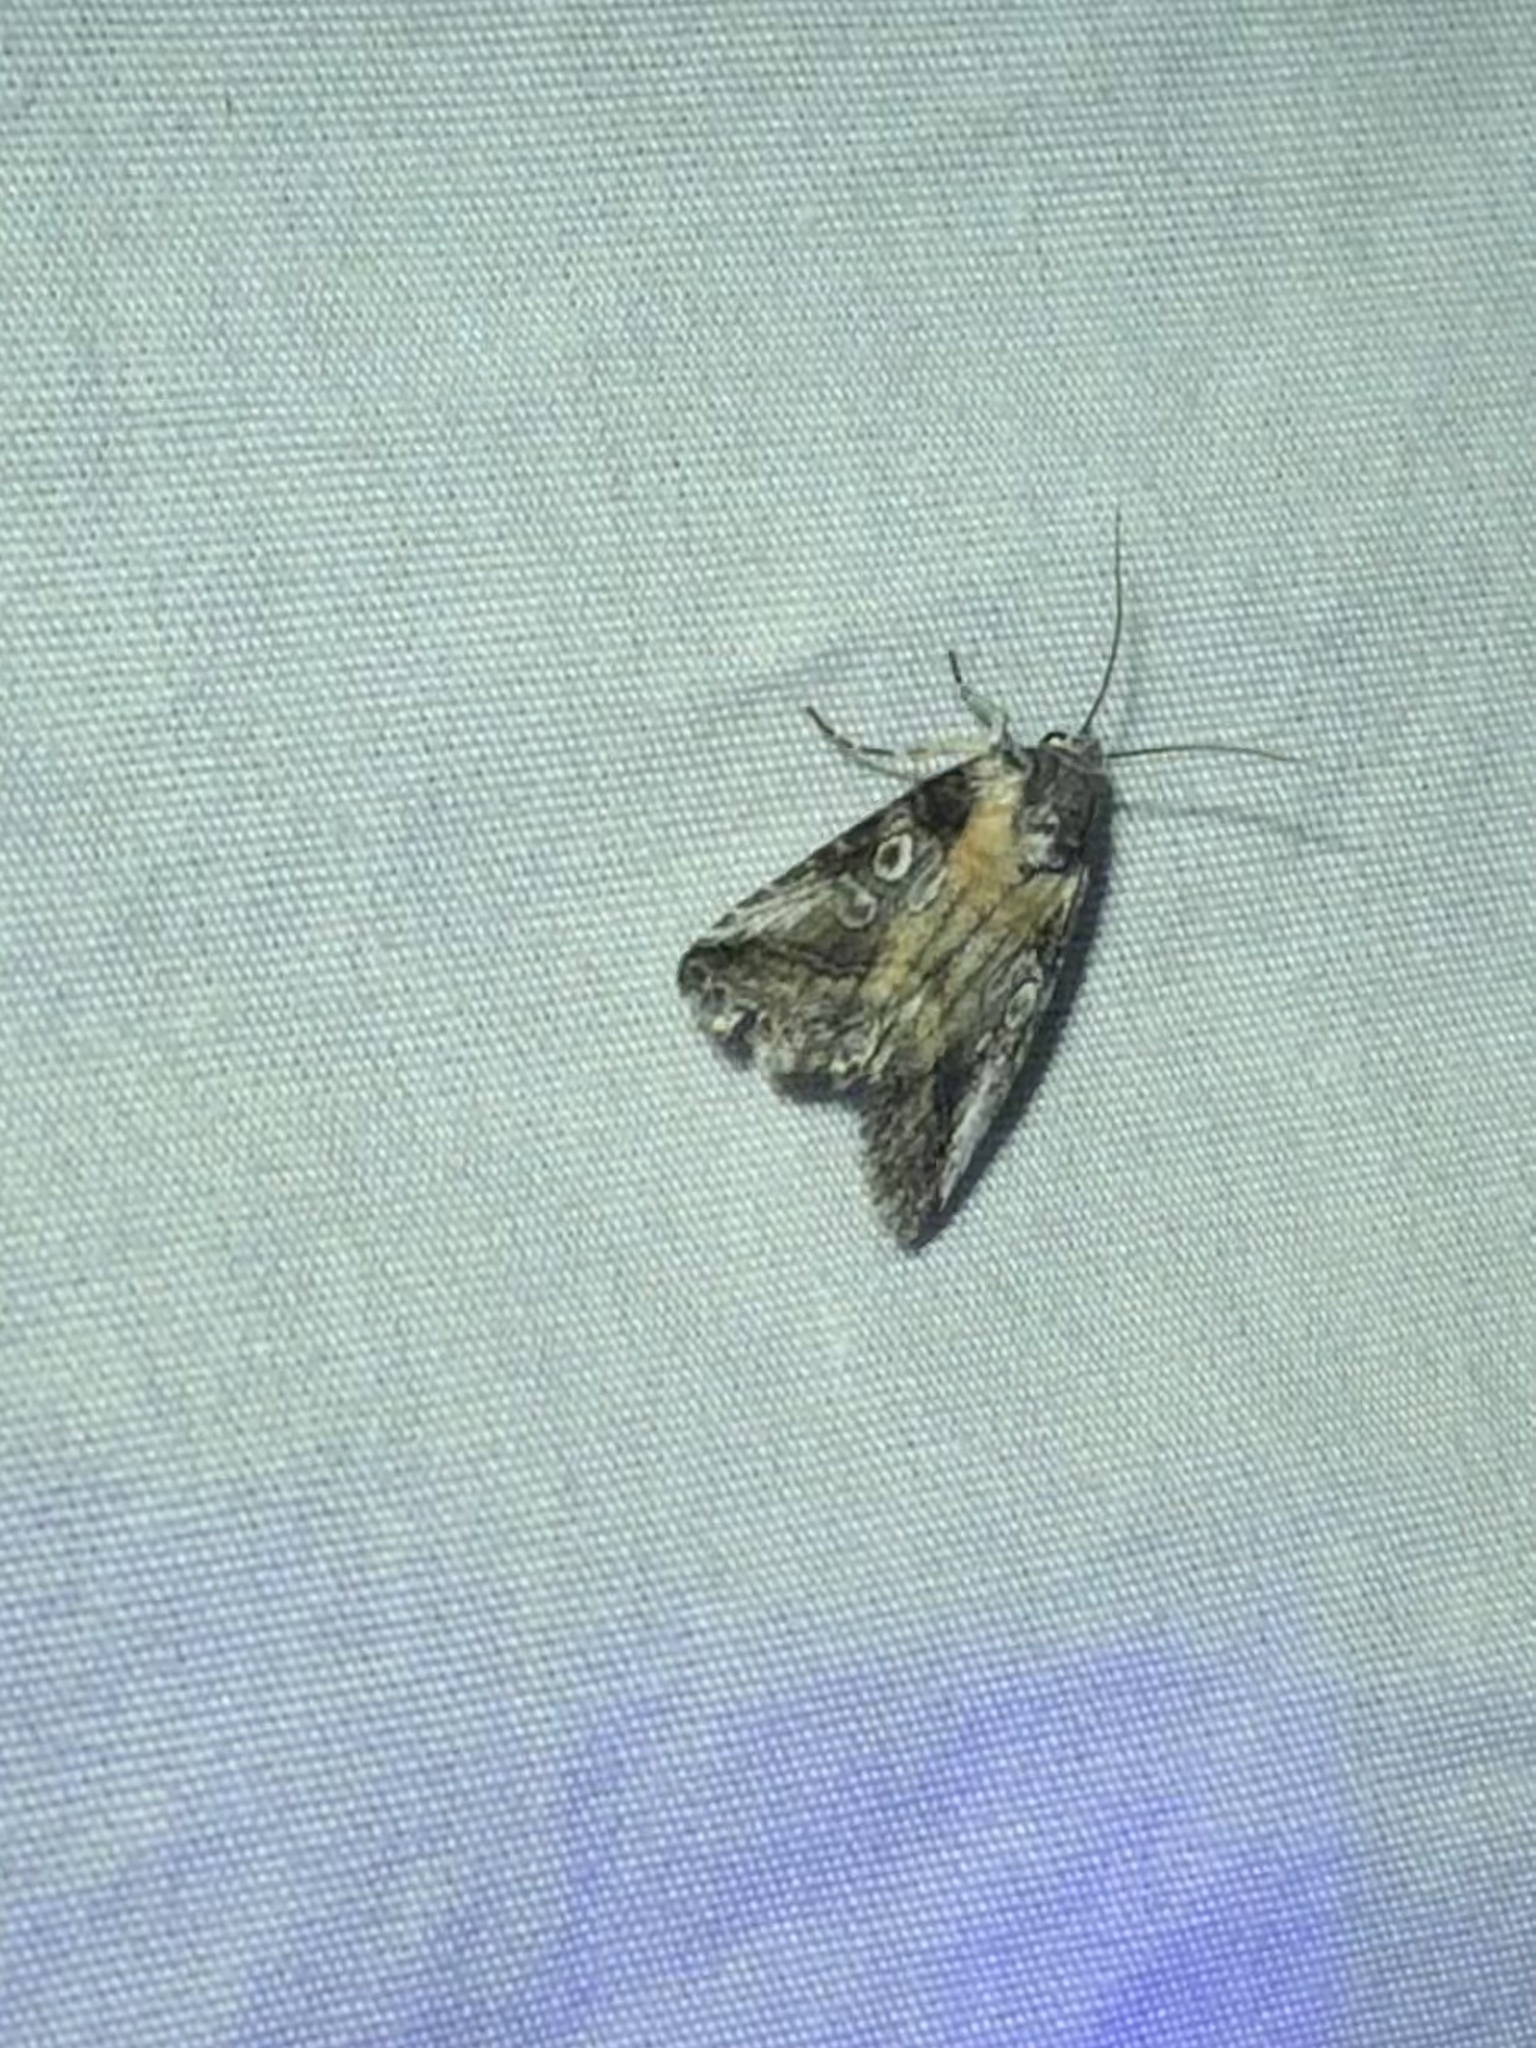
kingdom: Animalia
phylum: Arthropoda
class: Insecta
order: Lepidoptera
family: Noctuidae
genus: Aleptina
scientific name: Aleptina inca
